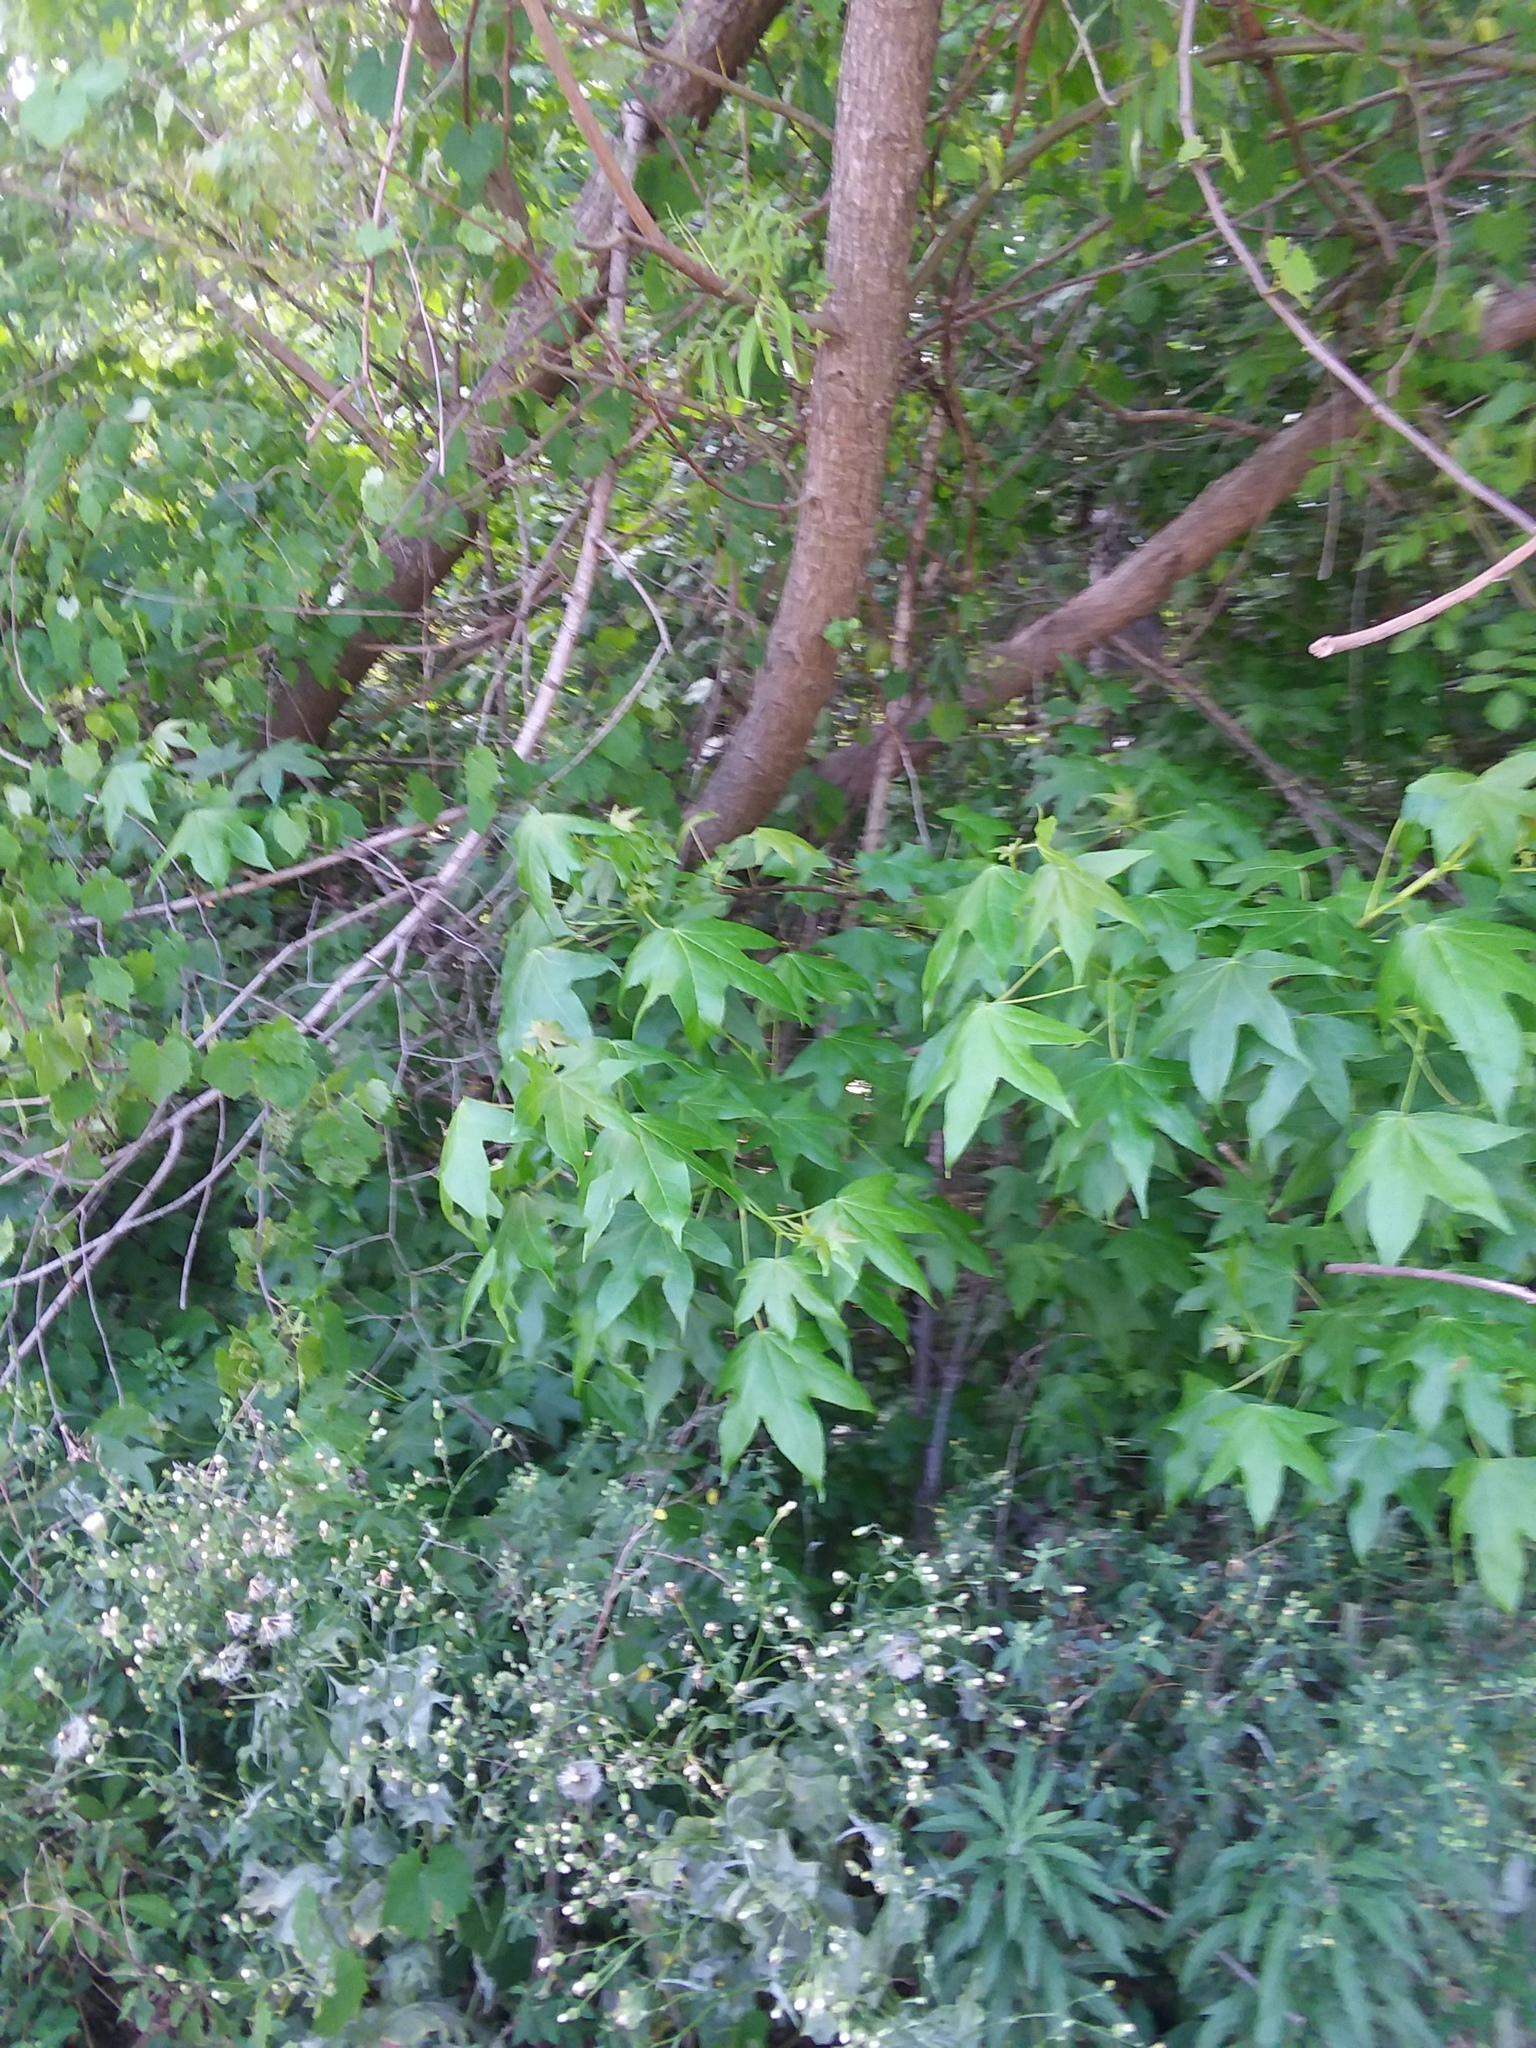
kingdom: Plantae
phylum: Tracheophyta
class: Magnoliopsida
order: Saxifragales
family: Altingiaceae
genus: Liquidambar
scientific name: Liquidambar styraciflua
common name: Sweet gum
